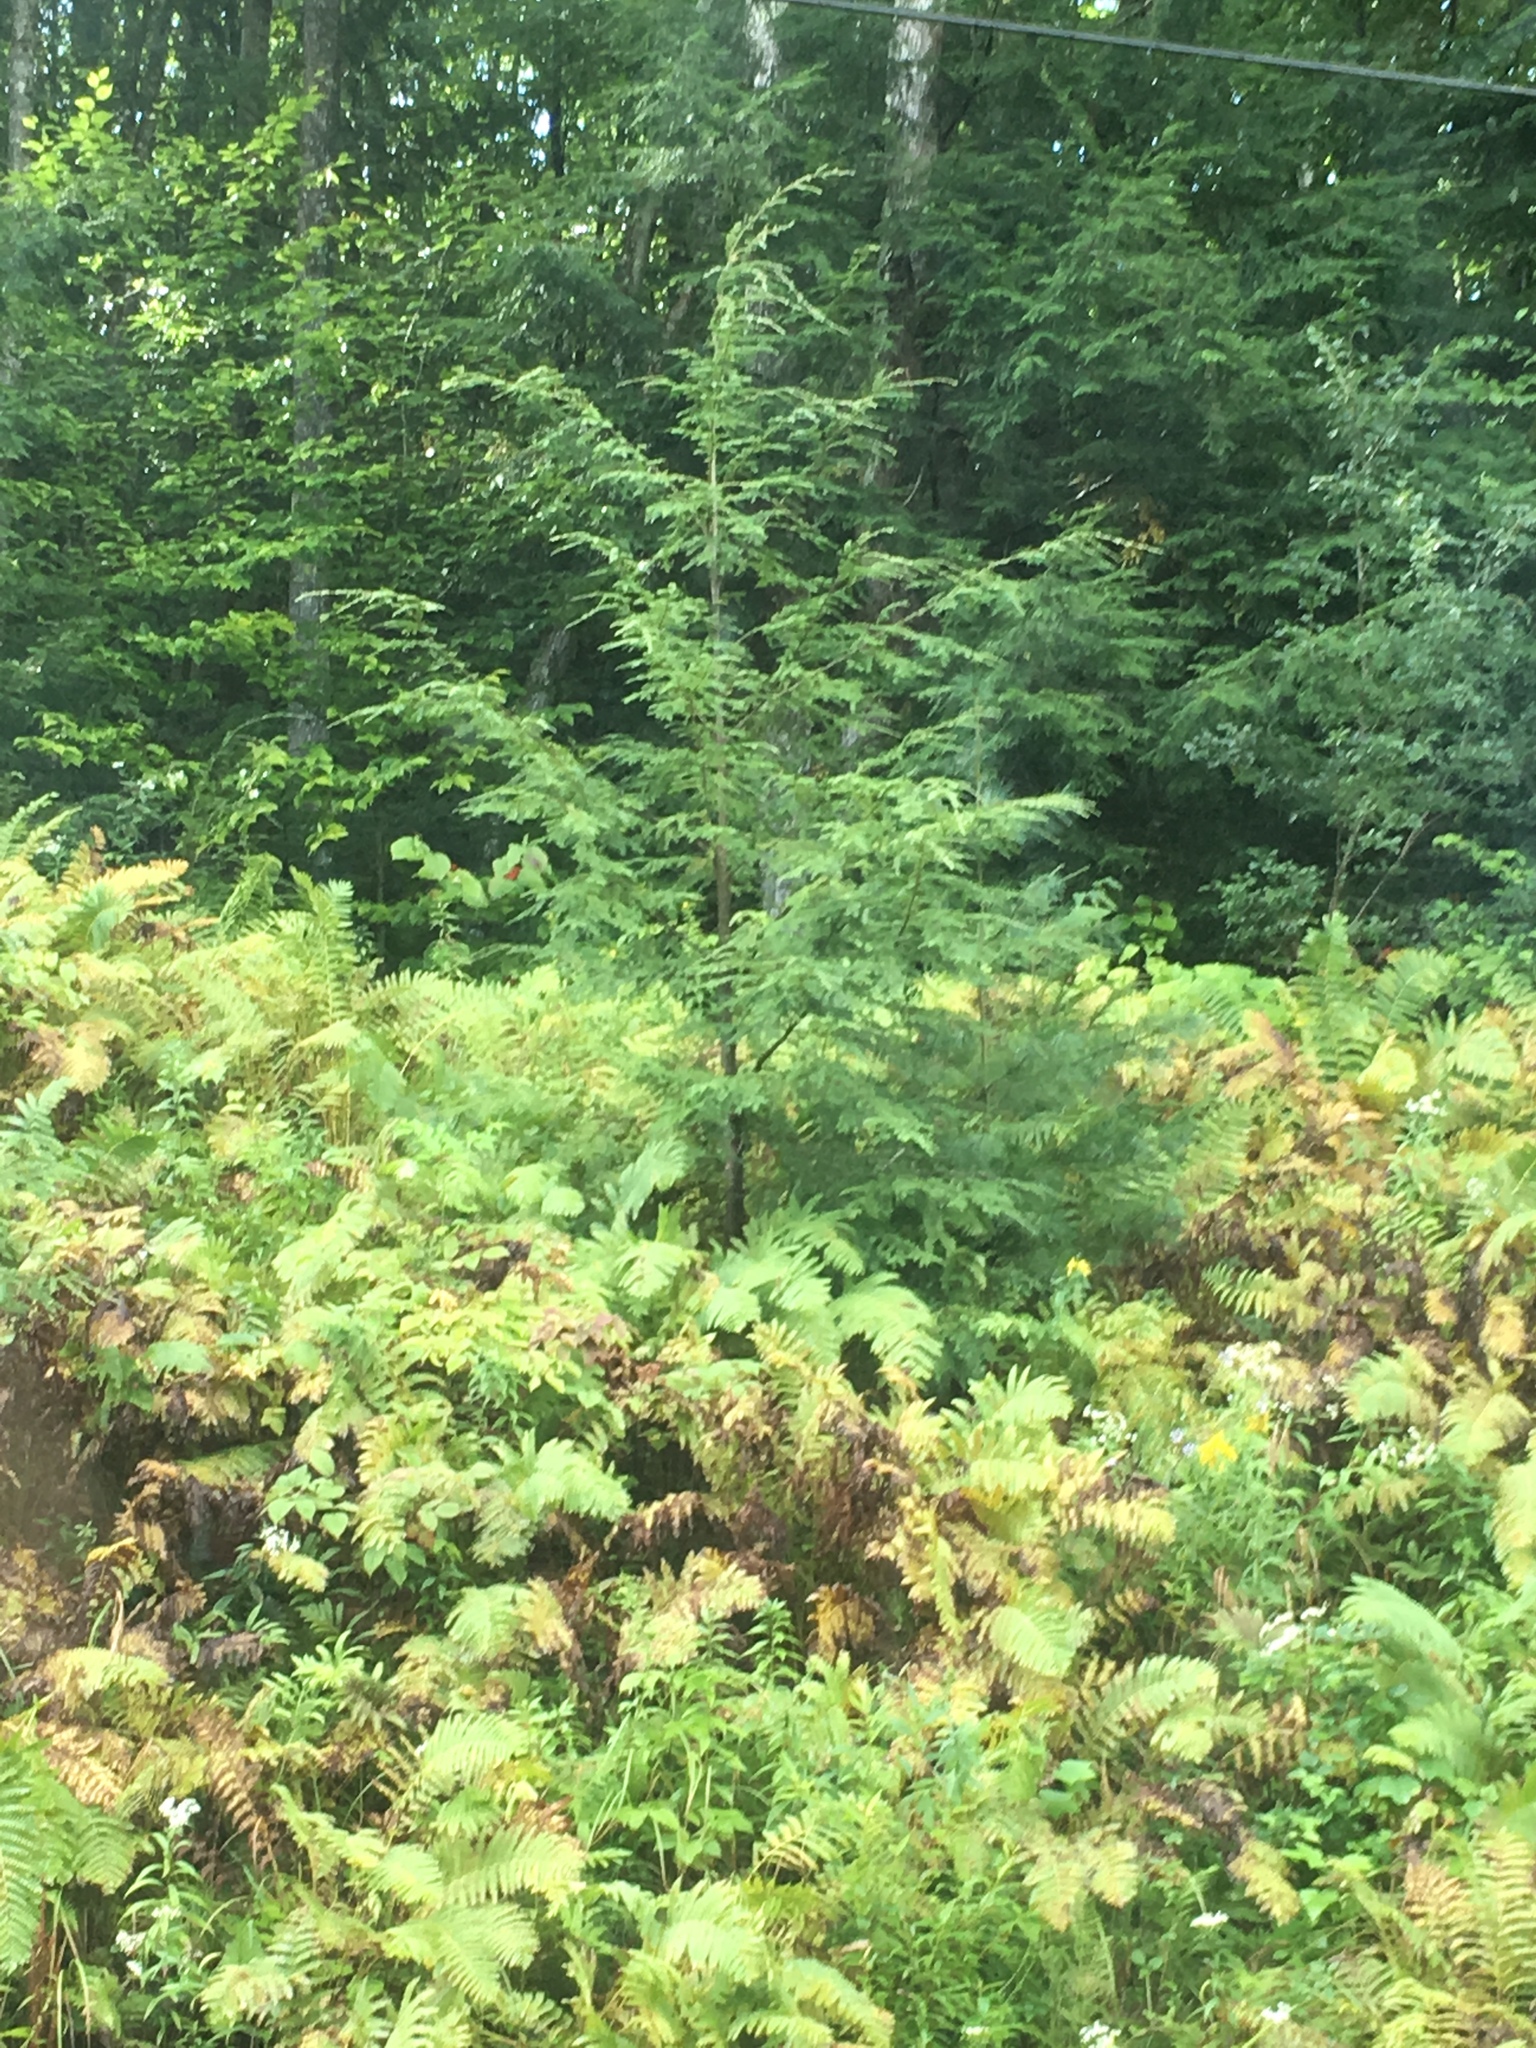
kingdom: Plantae
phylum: Tracheophyta
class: Pinopsida
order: Pinales
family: Pinaceae
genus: Tsuga
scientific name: Tsuga canadensis
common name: Eastern hemlock
